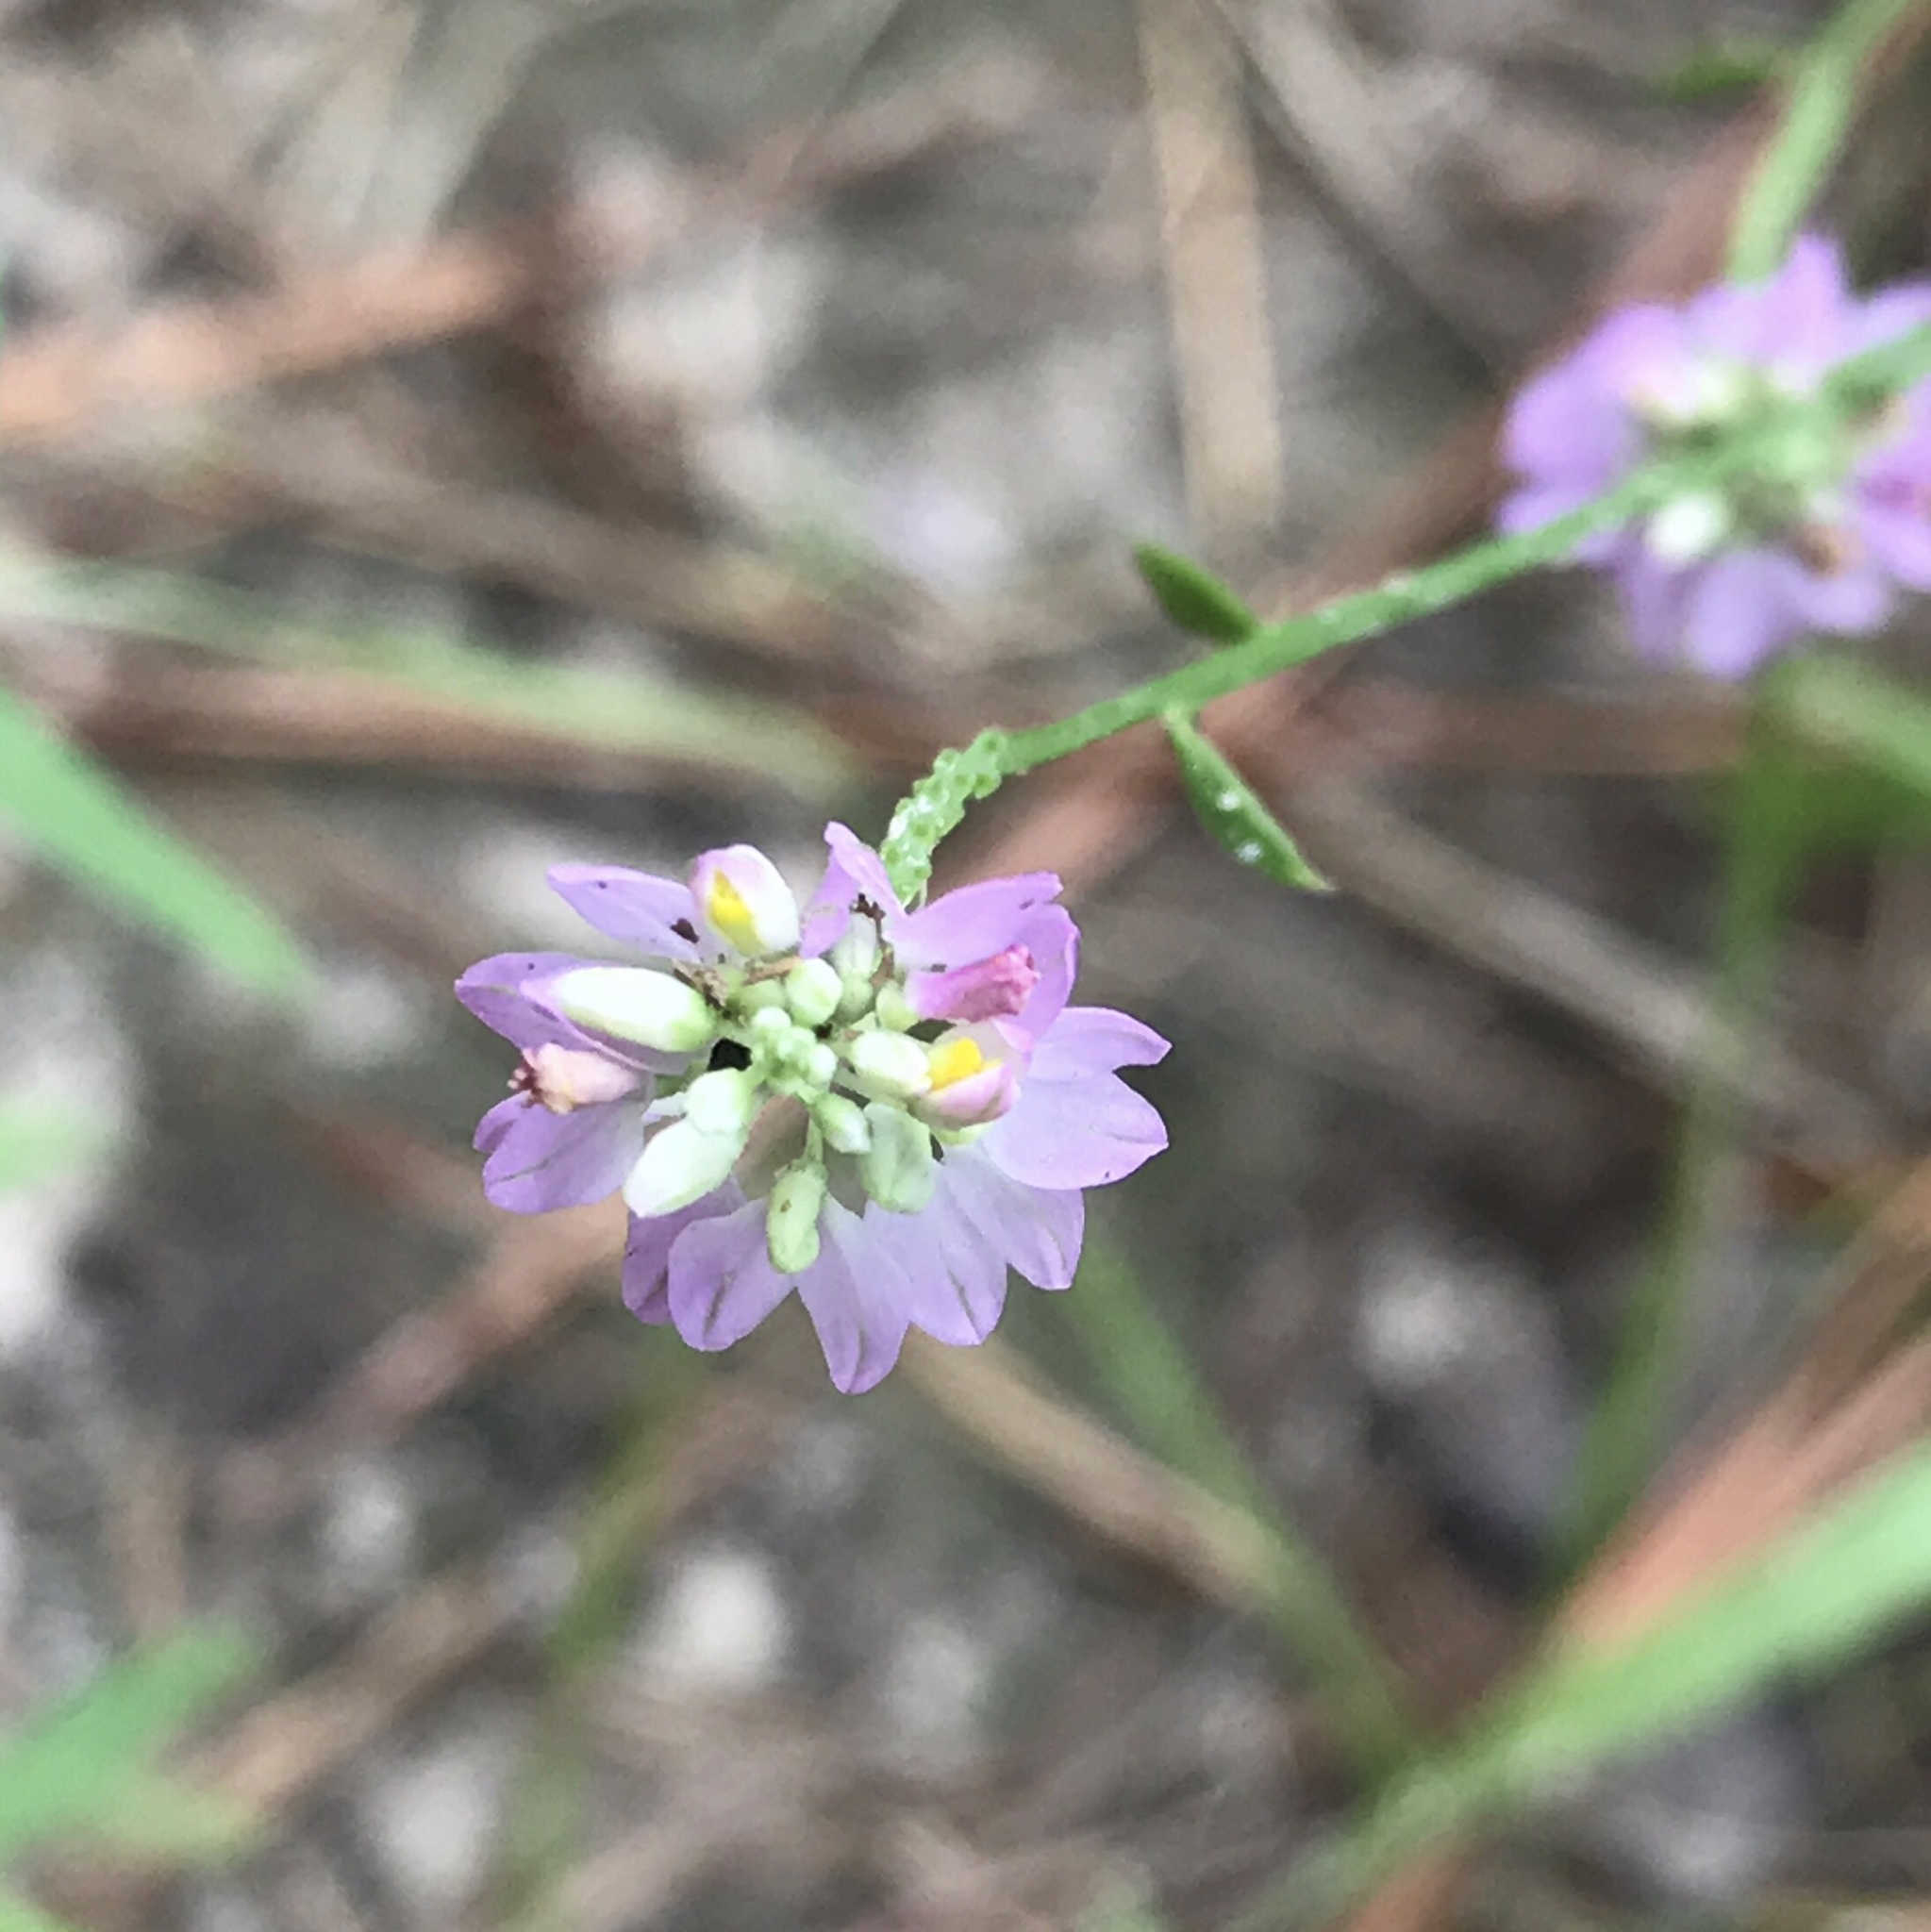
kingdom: Plantae
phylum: Tracheophyta
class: Magnoliopsida
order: Fabales
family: Polygalaceae
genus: Polygala
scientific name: Polygala mariana
